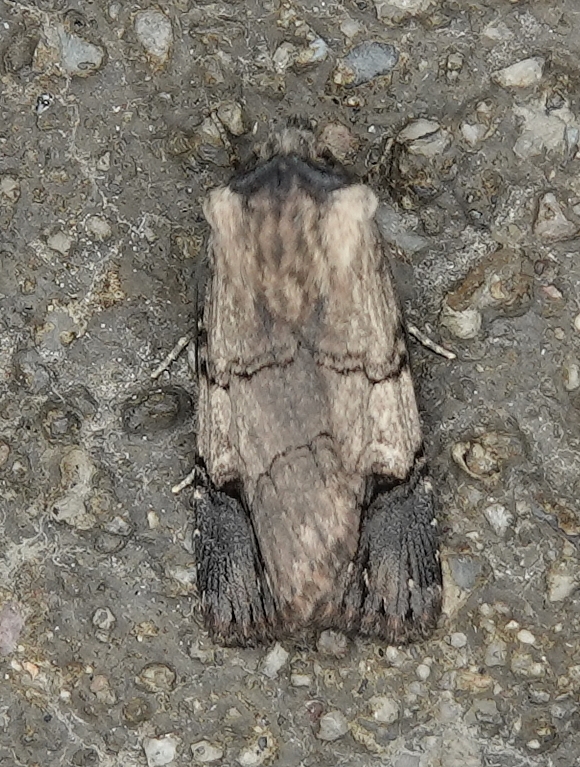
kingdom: Animalia
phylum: Arthropoda
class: Insecta
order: Lepidoptera
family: Noctuidae
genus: Dichagyris
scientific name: Dichagyris grotei
